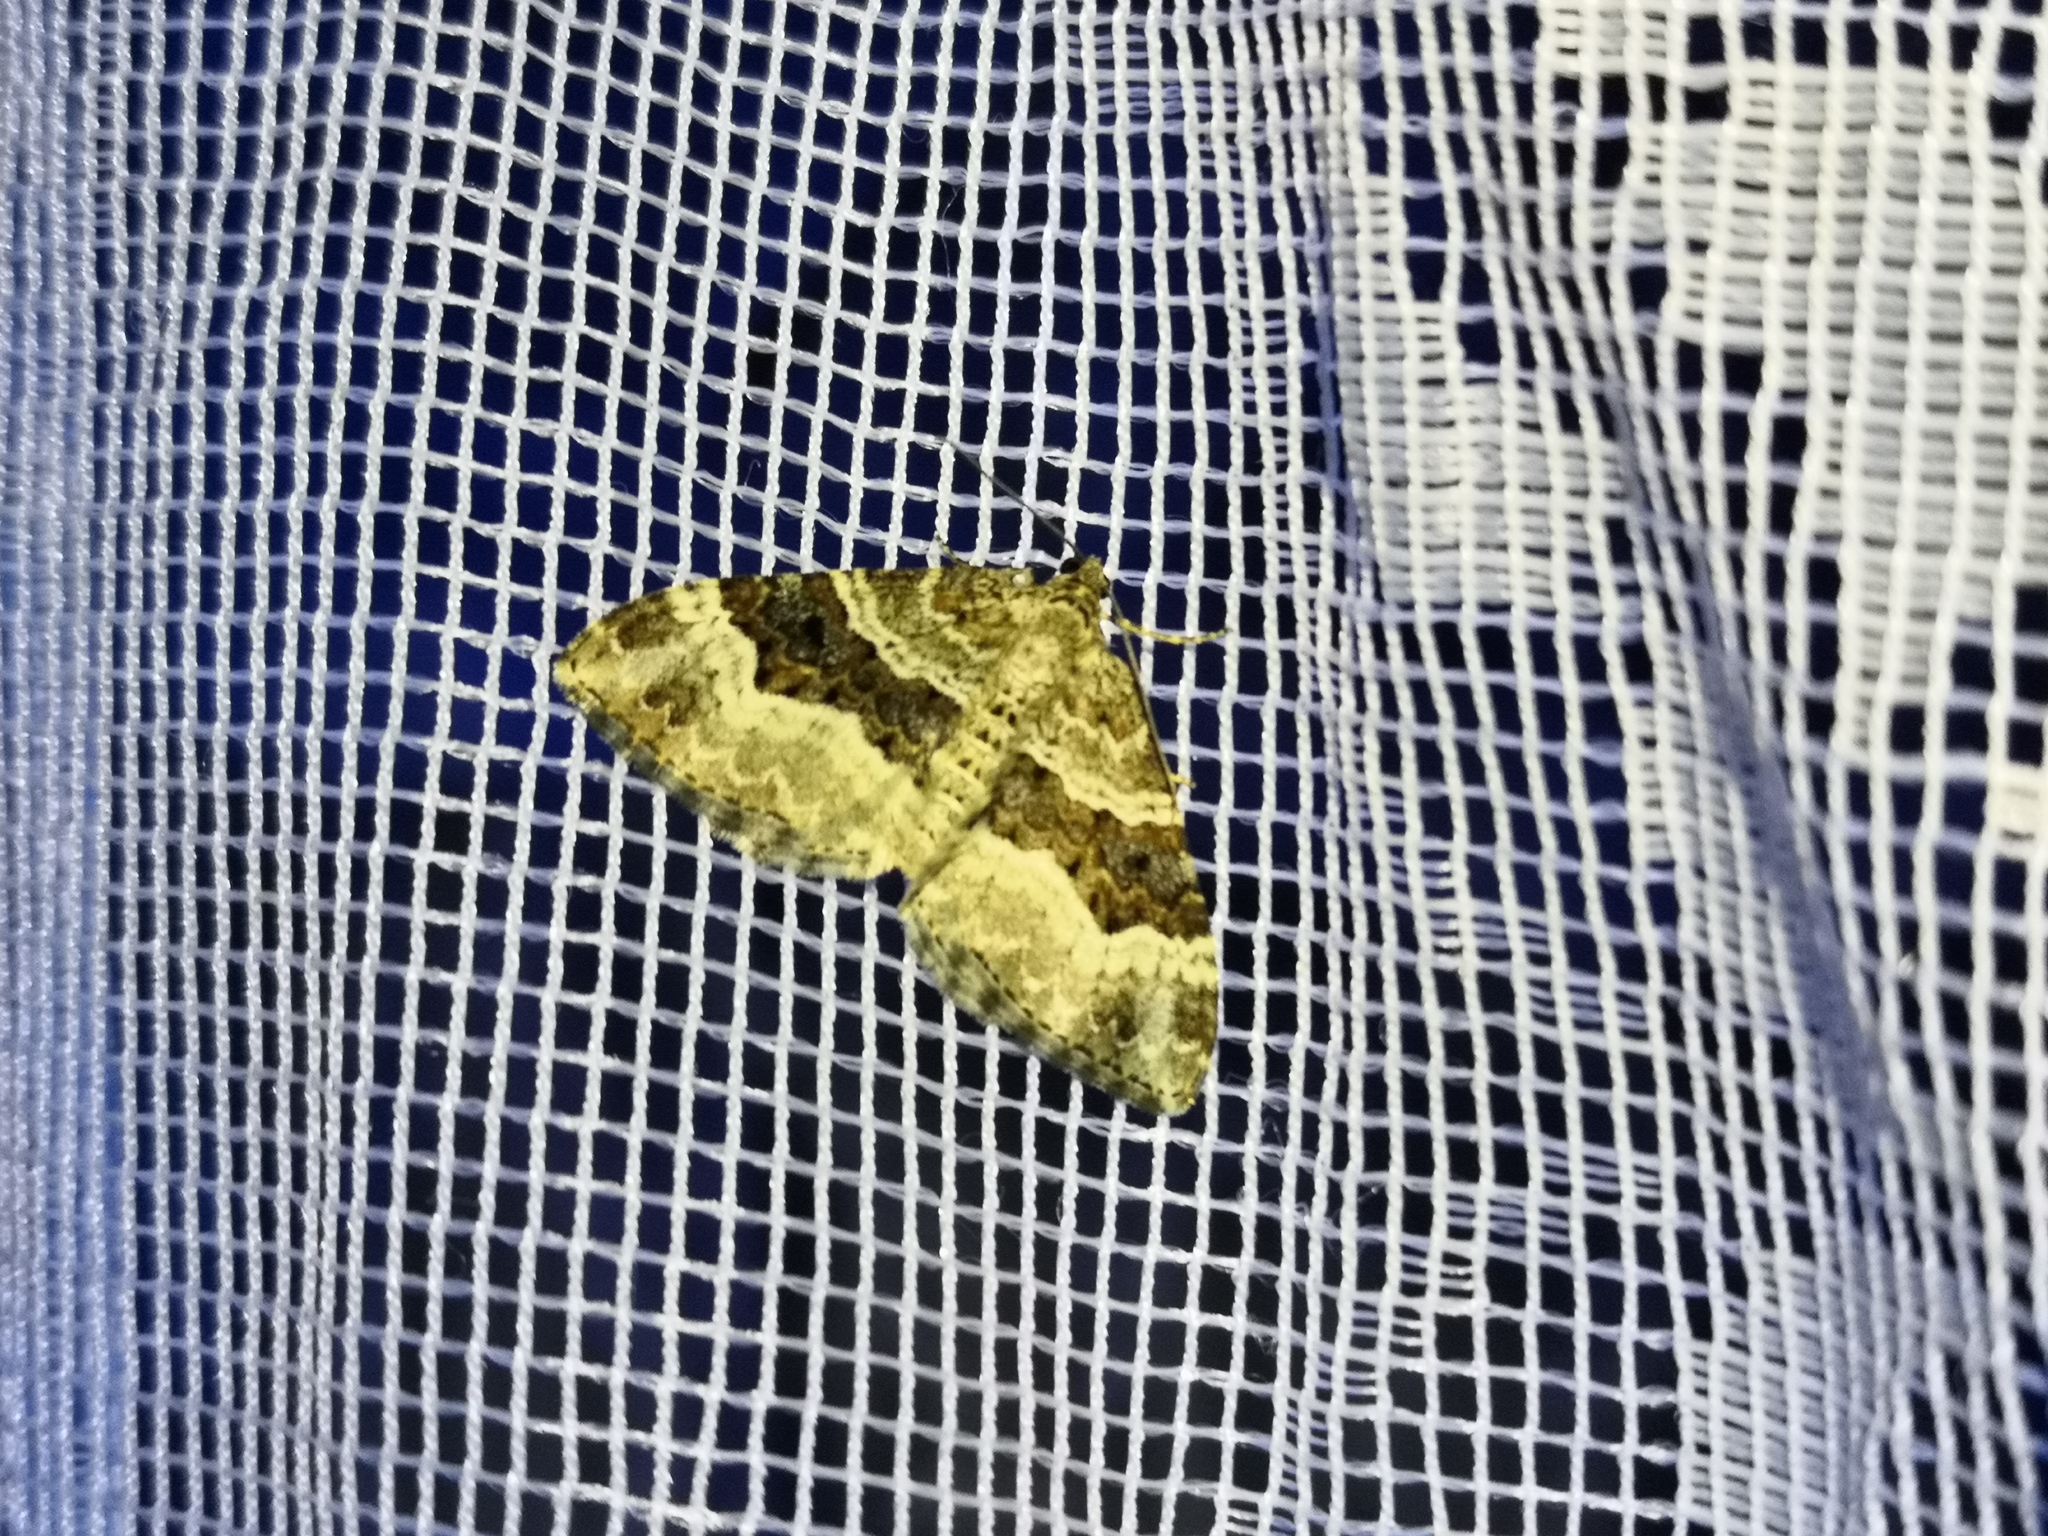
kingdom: Animalia
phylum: Arthropoda
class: Insecta
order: Lepidoptera
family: Geometridae
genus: Epirrhoe
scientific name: Epirrhoe alternata
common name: Common carpet
